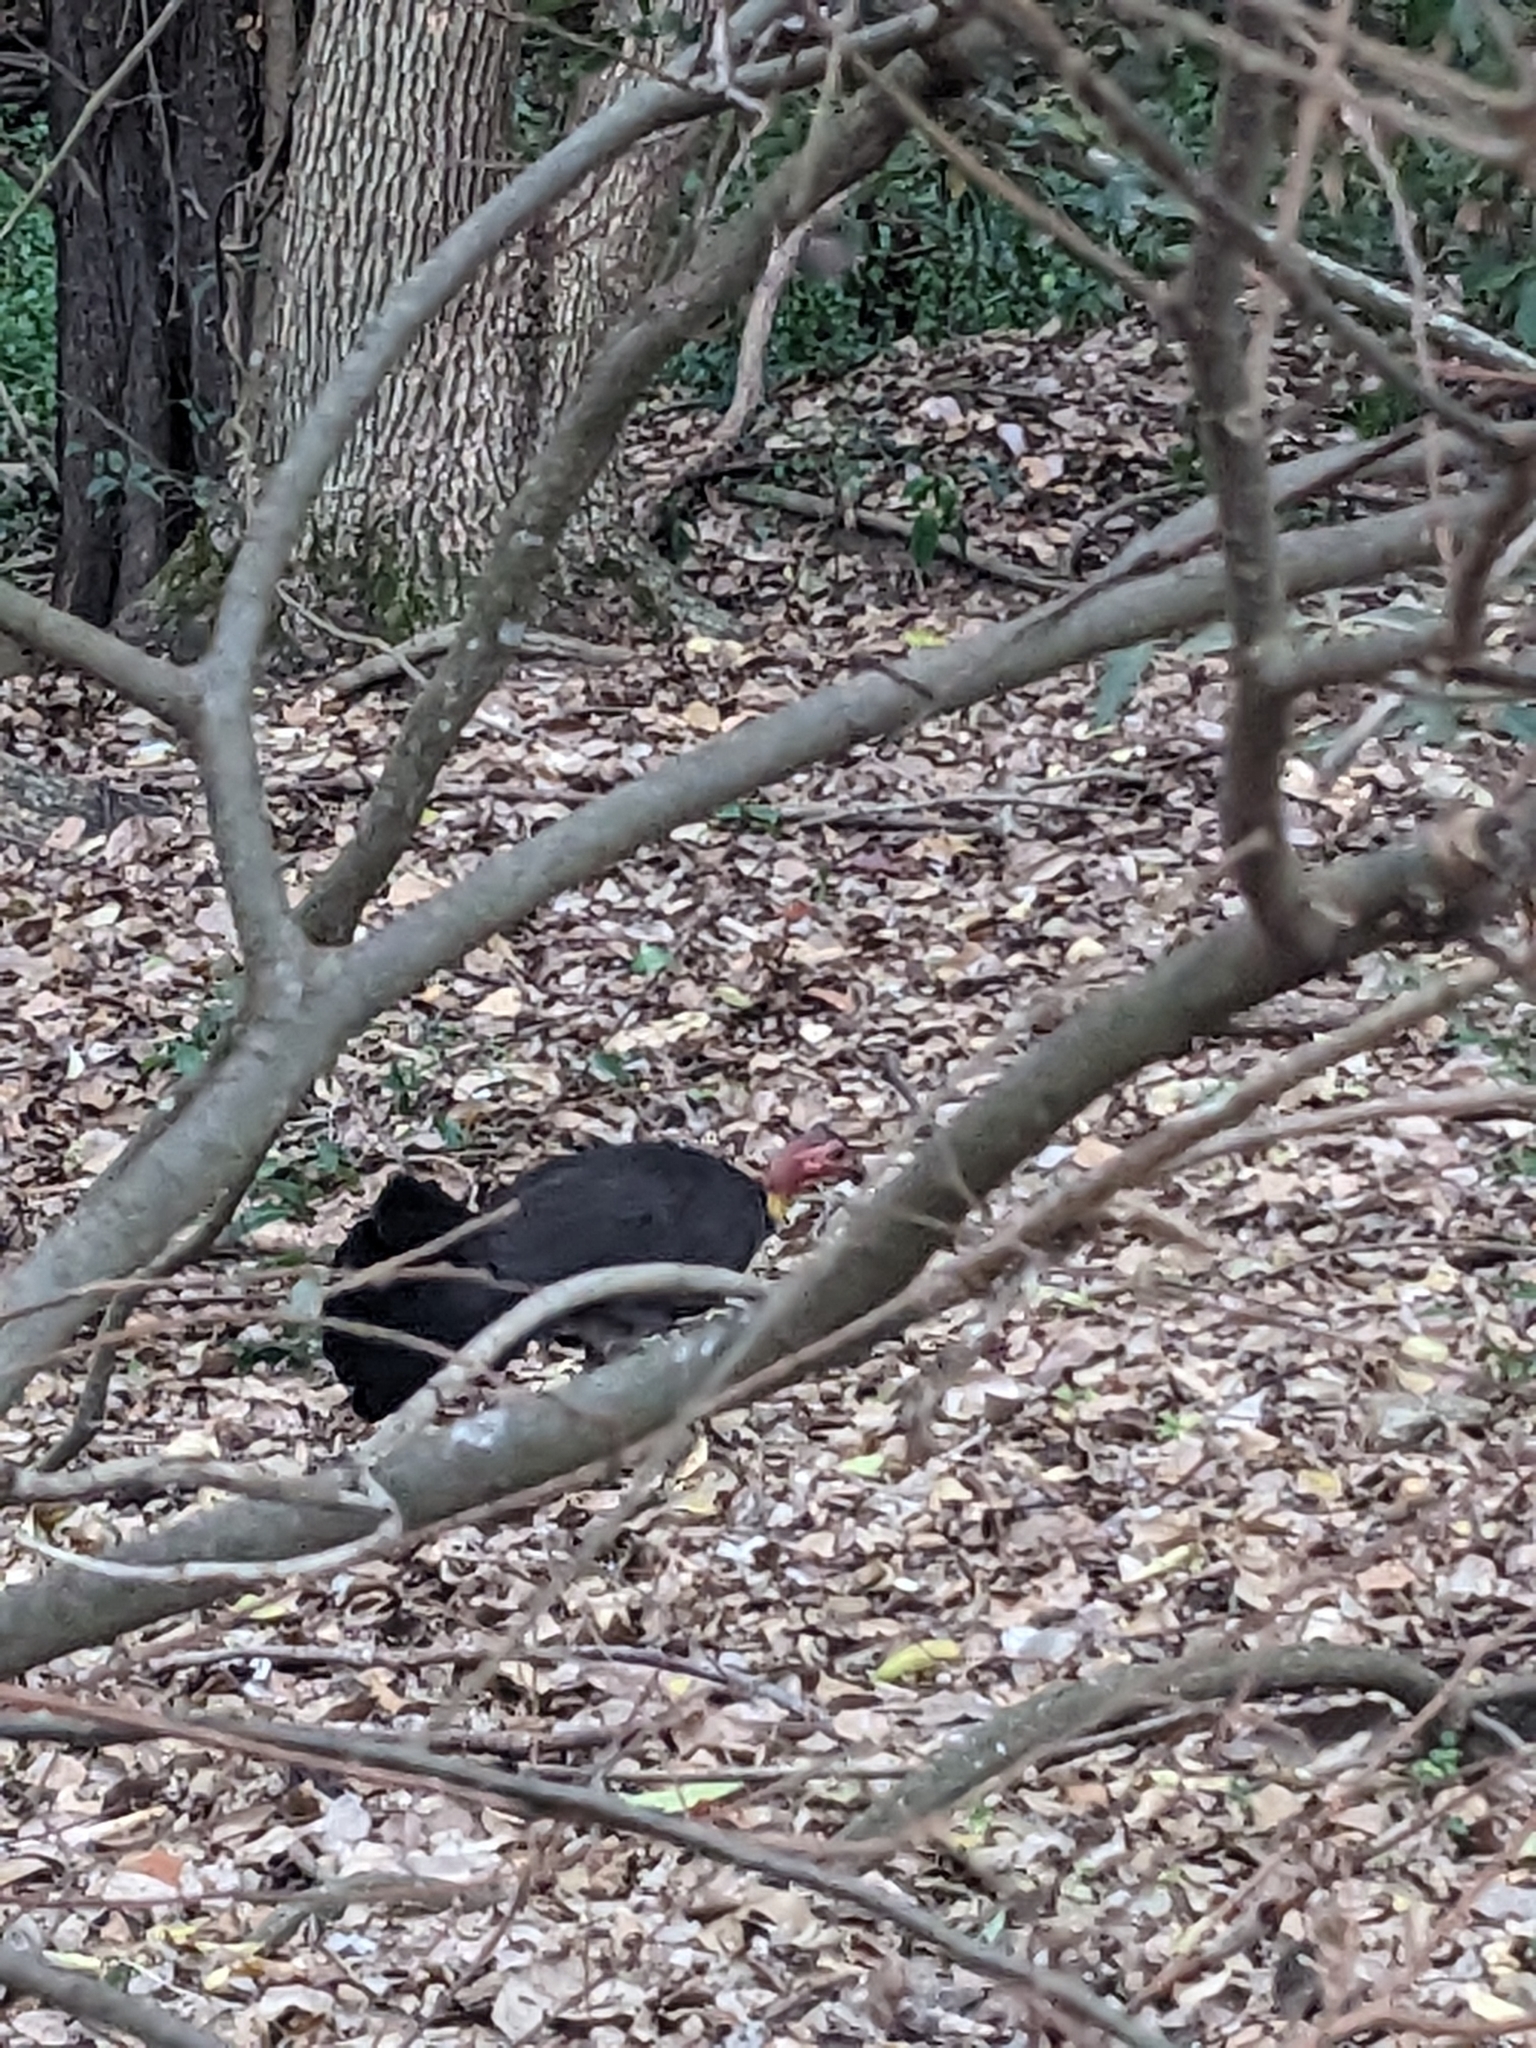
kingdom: Animalia
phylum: Chordata
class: Aves
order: Galliformes
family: Megapodiidae
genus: Alectura
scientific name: Alectura lathami
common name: Australian brushturkey
